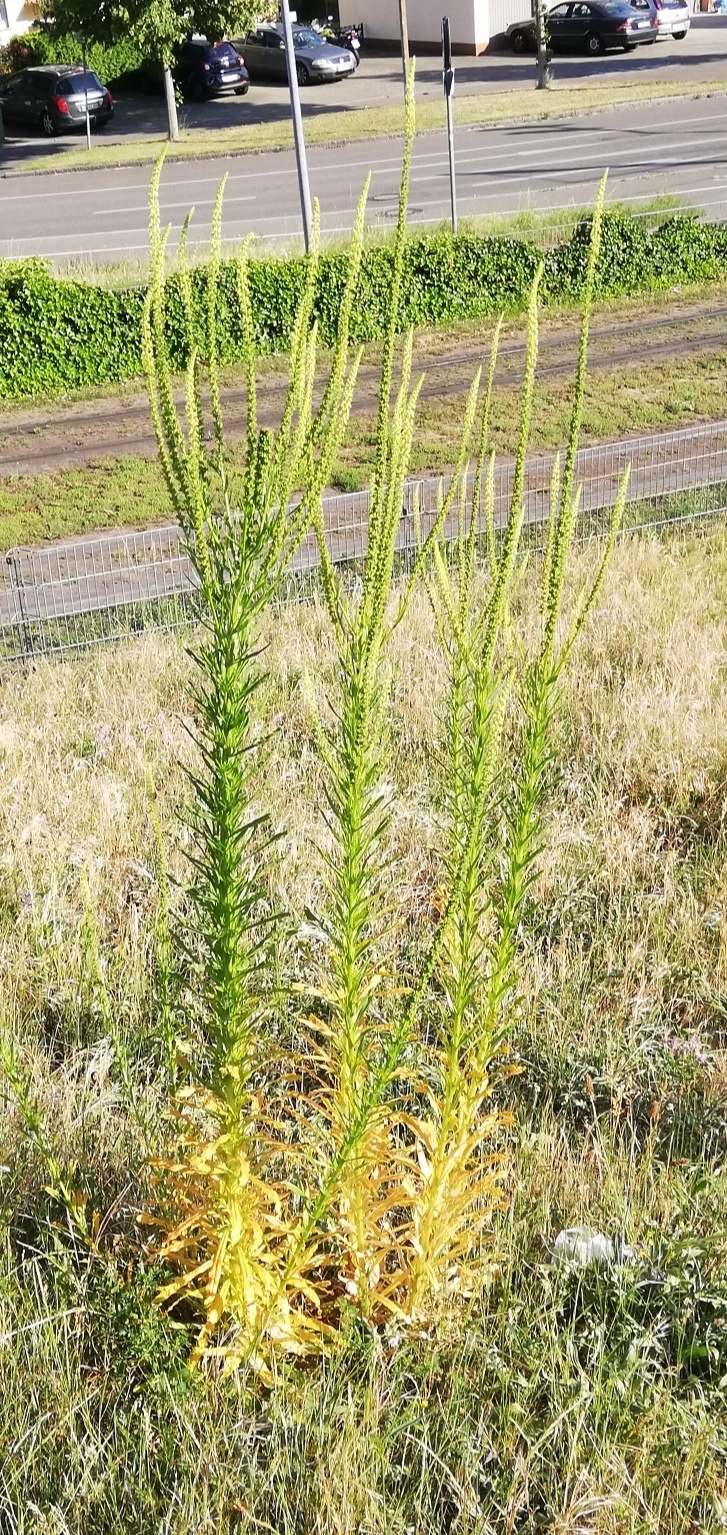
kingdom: Plantae
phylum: Tracheophyta
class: Magnoliopsida
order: Brassicales
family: Resedaceae
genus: Reseda
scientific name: Reseda luteola
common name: Weld
